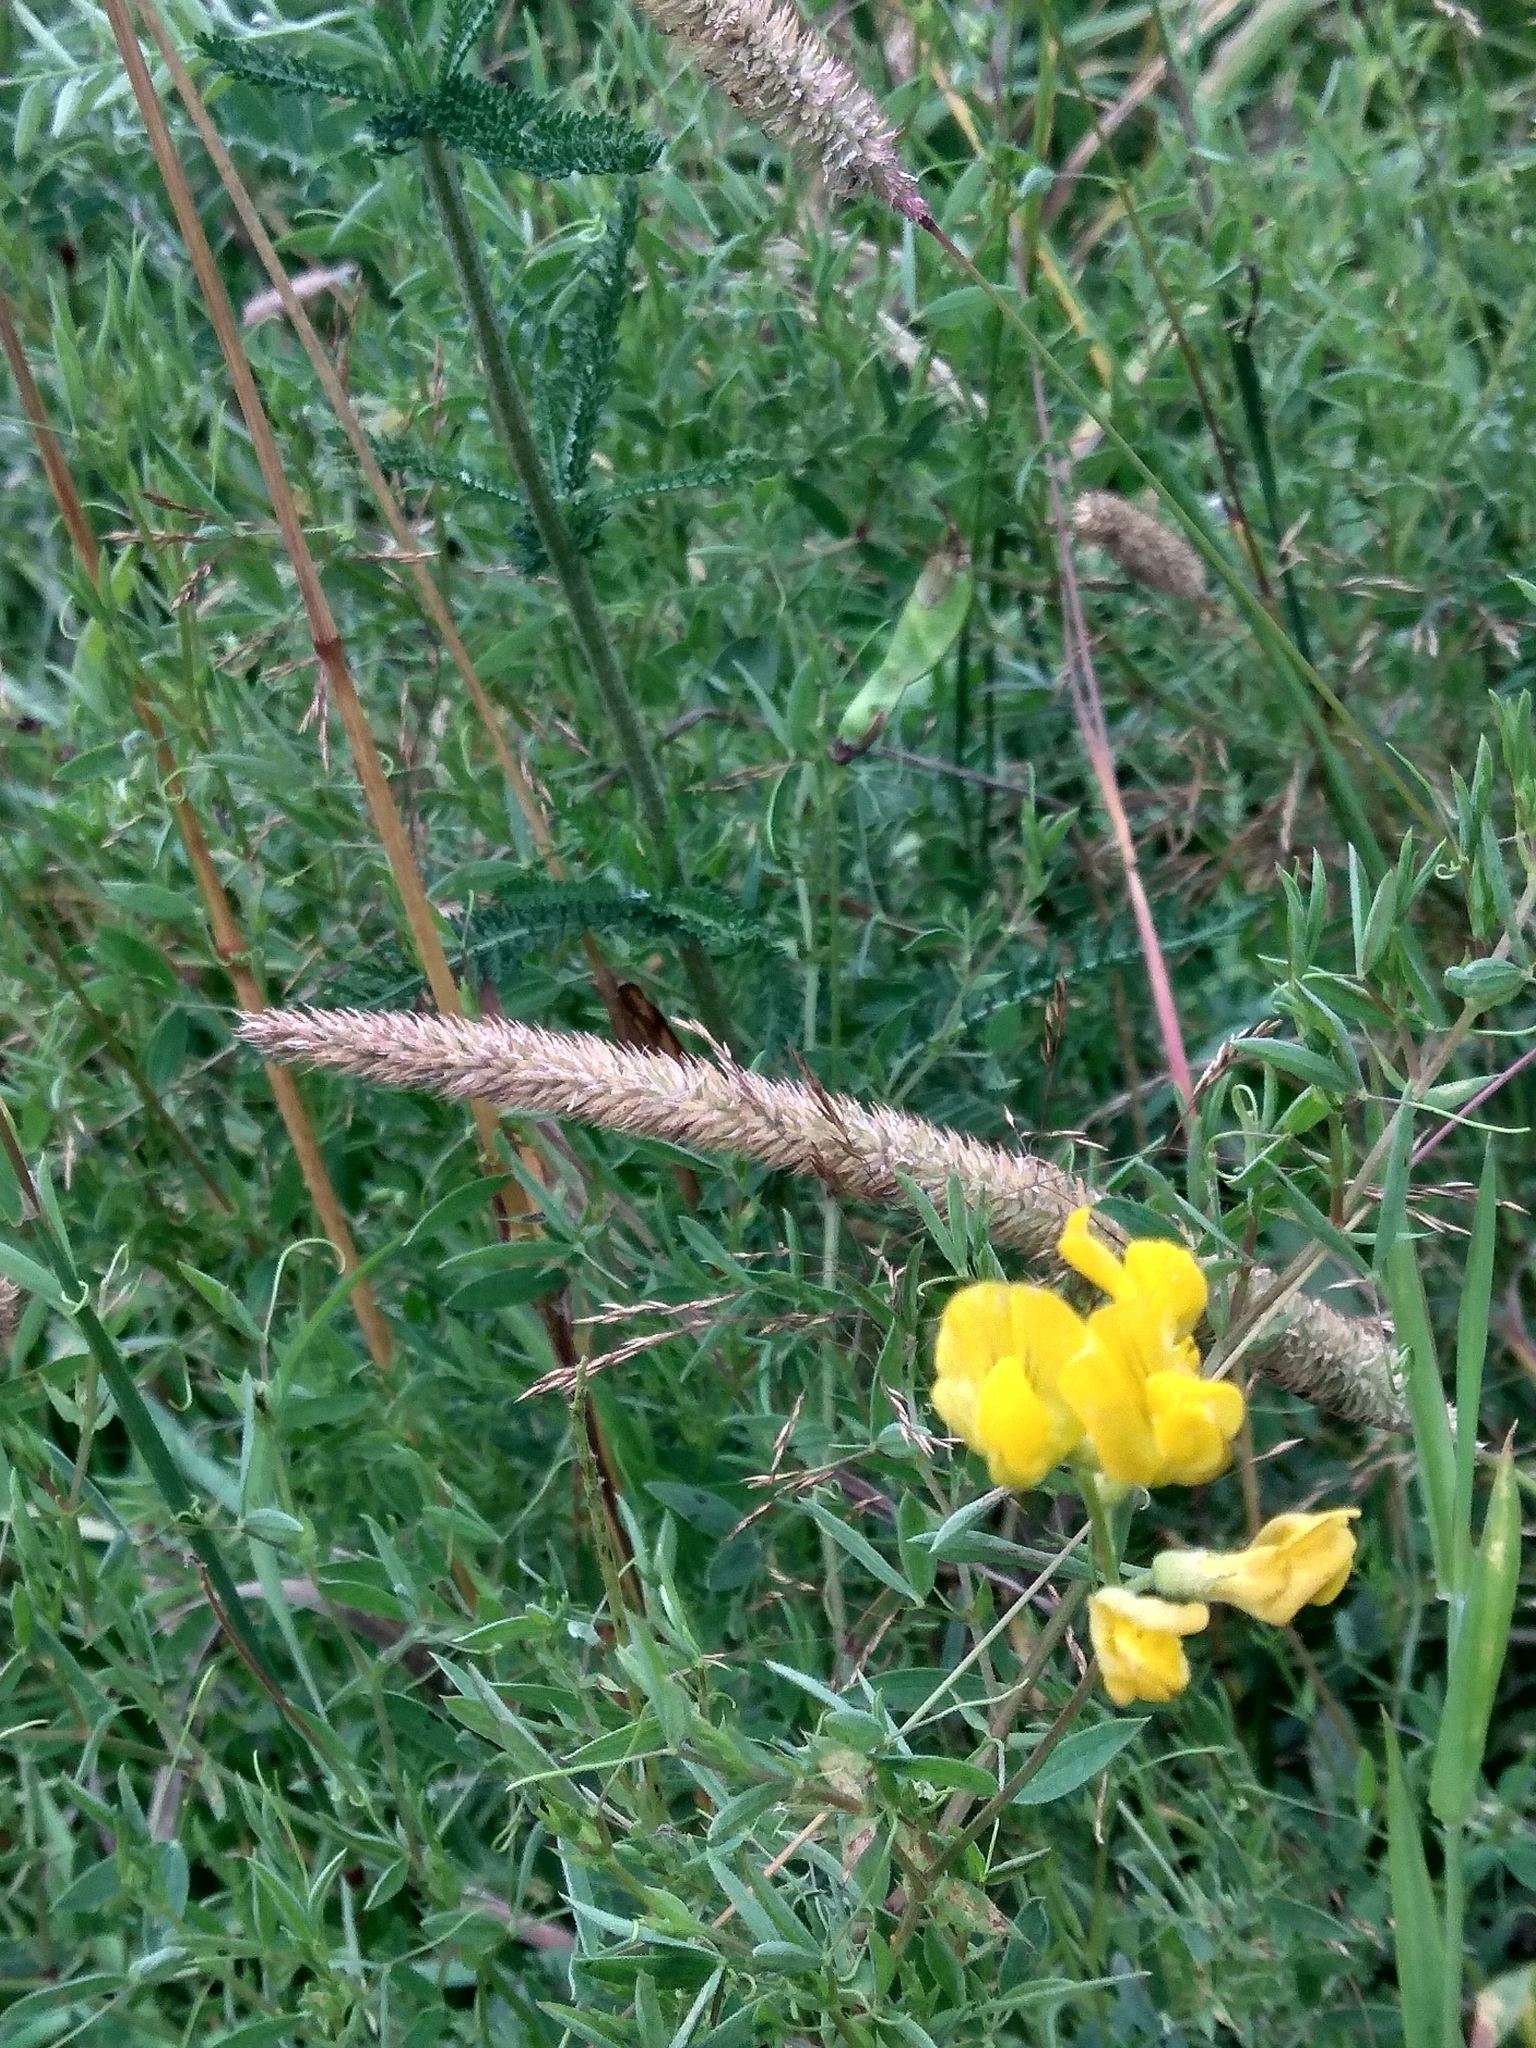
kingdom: Plantae
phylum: Tracheophyta
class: Magnoliopsida
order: Fabales
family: Fabaceae
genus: Lathyrus
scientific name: Lathyrus pratensis
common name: Meadow vetchling
